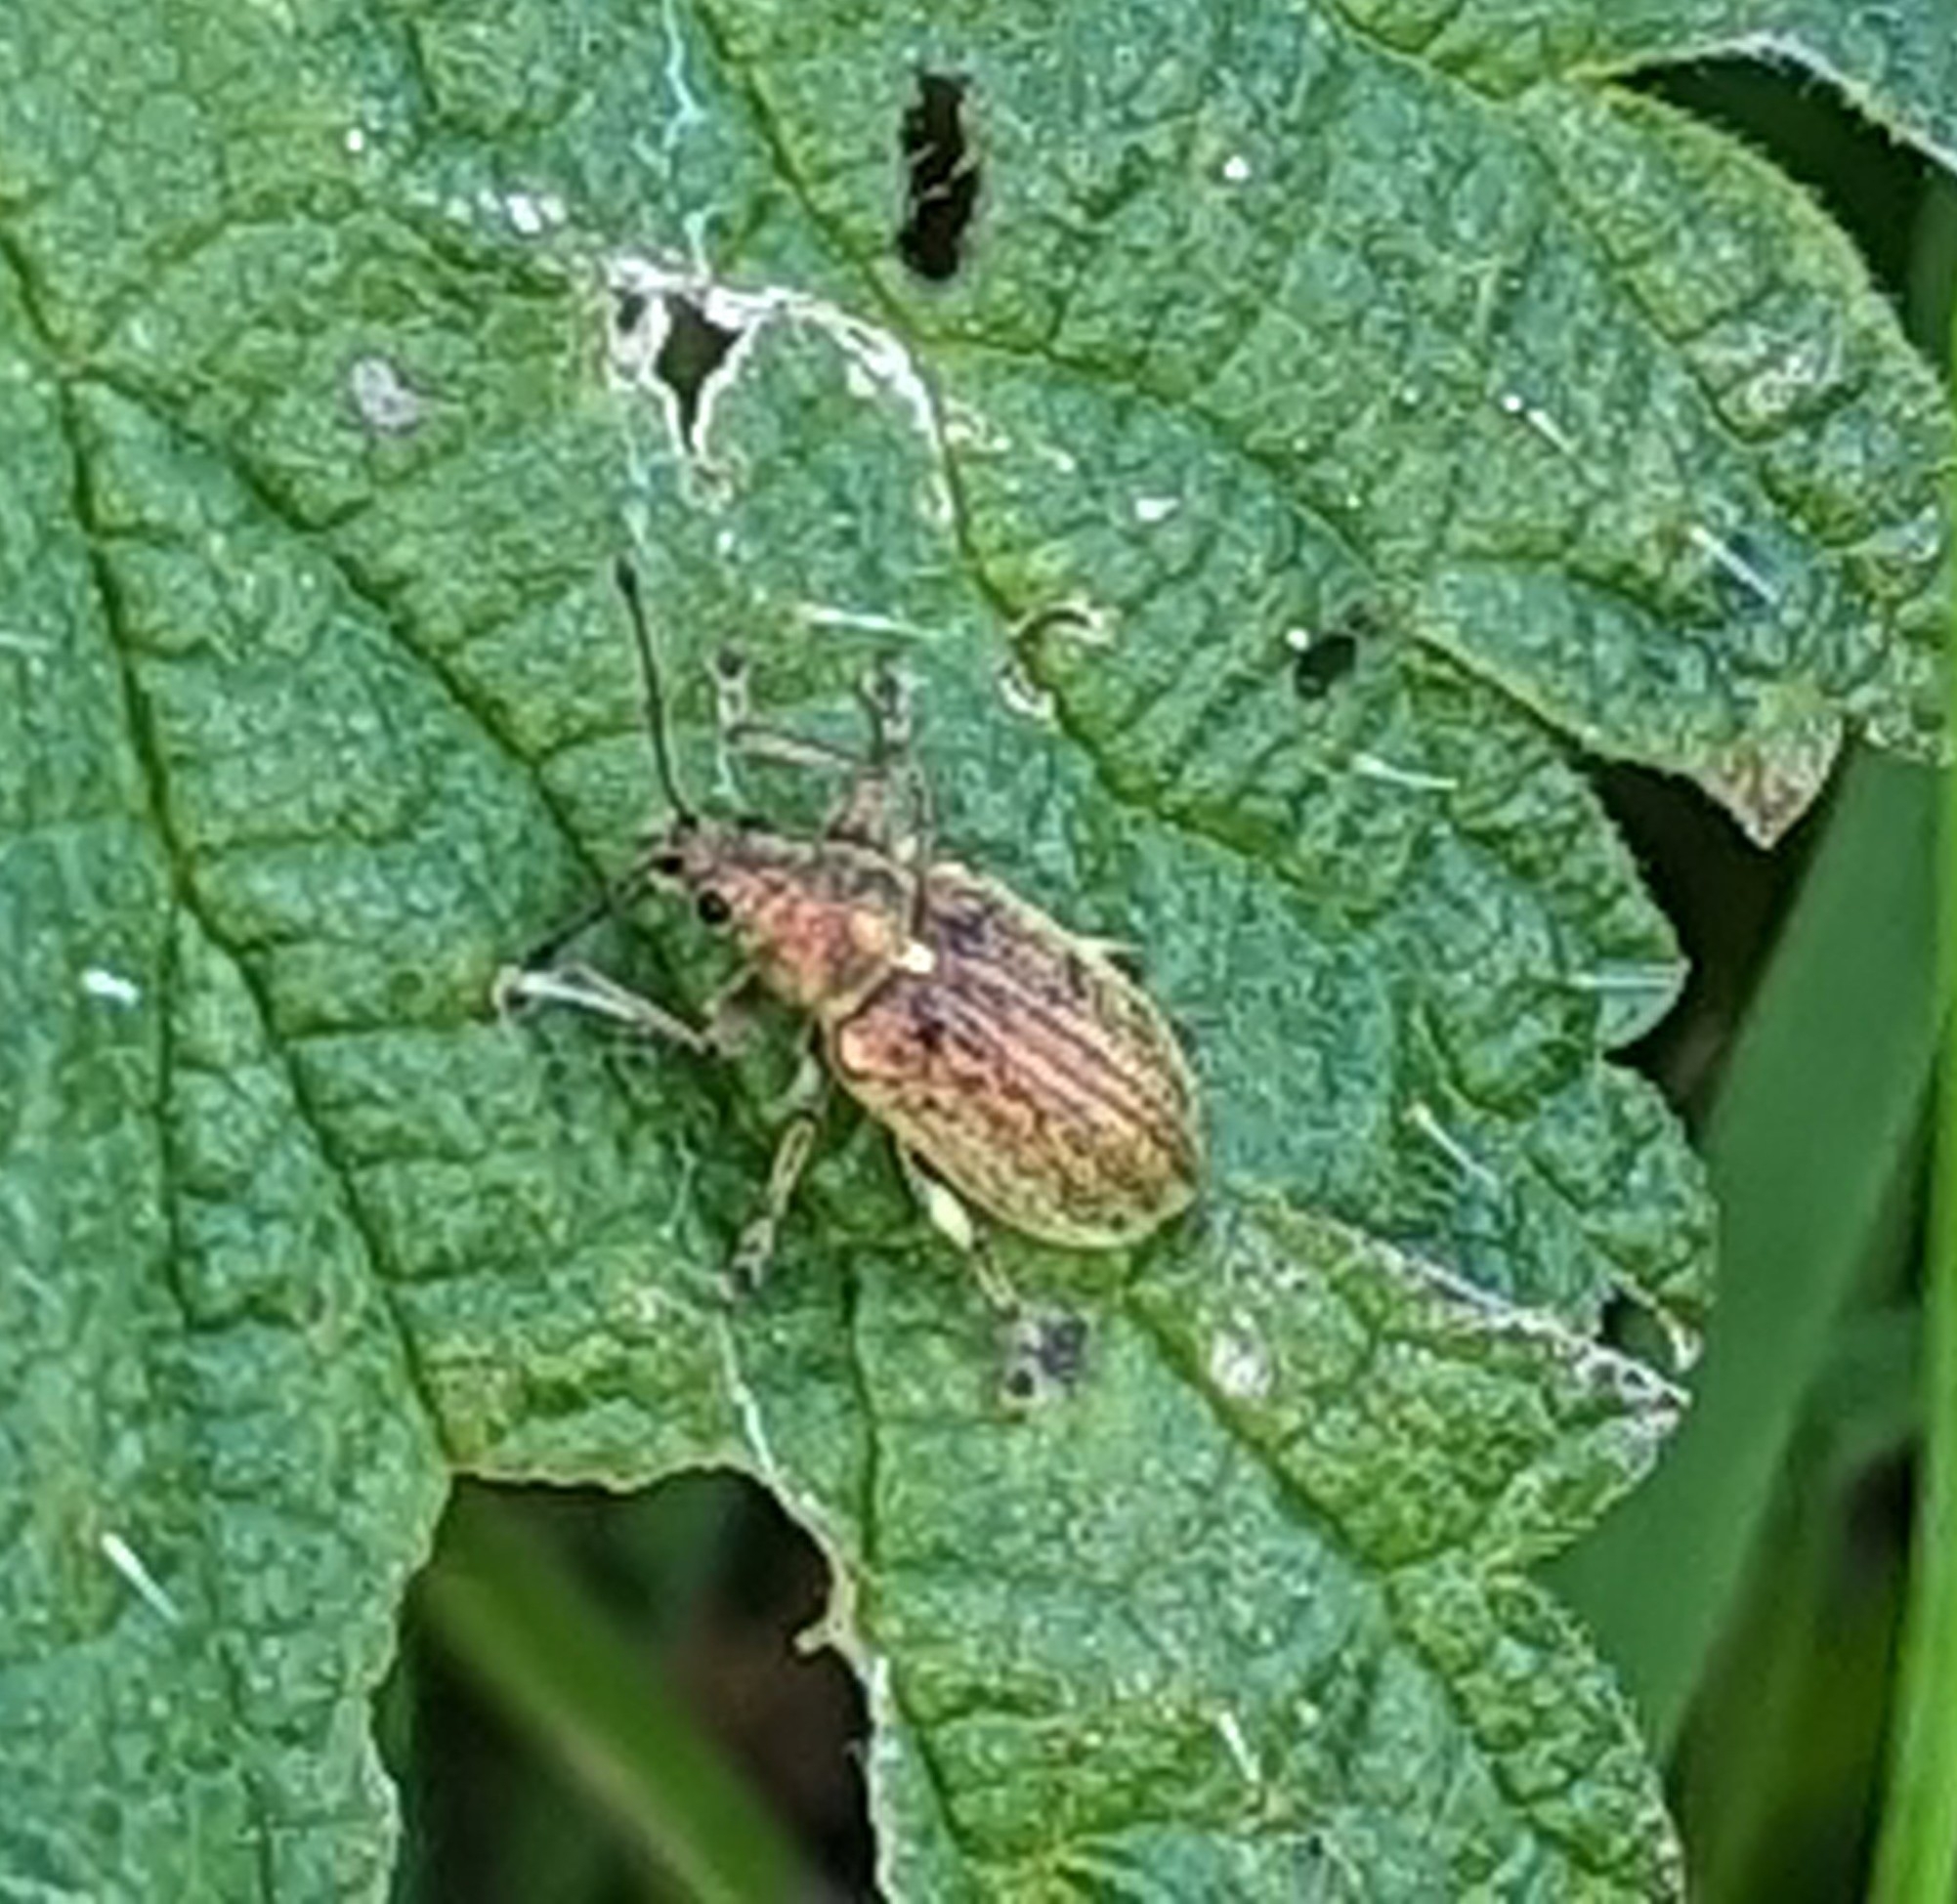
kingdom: Animalia
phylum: Arthropoda
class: Insecta
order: Coleoptera
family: Curculionidae
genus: Phyllobius
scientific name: Phyllobius pyri
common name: Common leaf weevil
